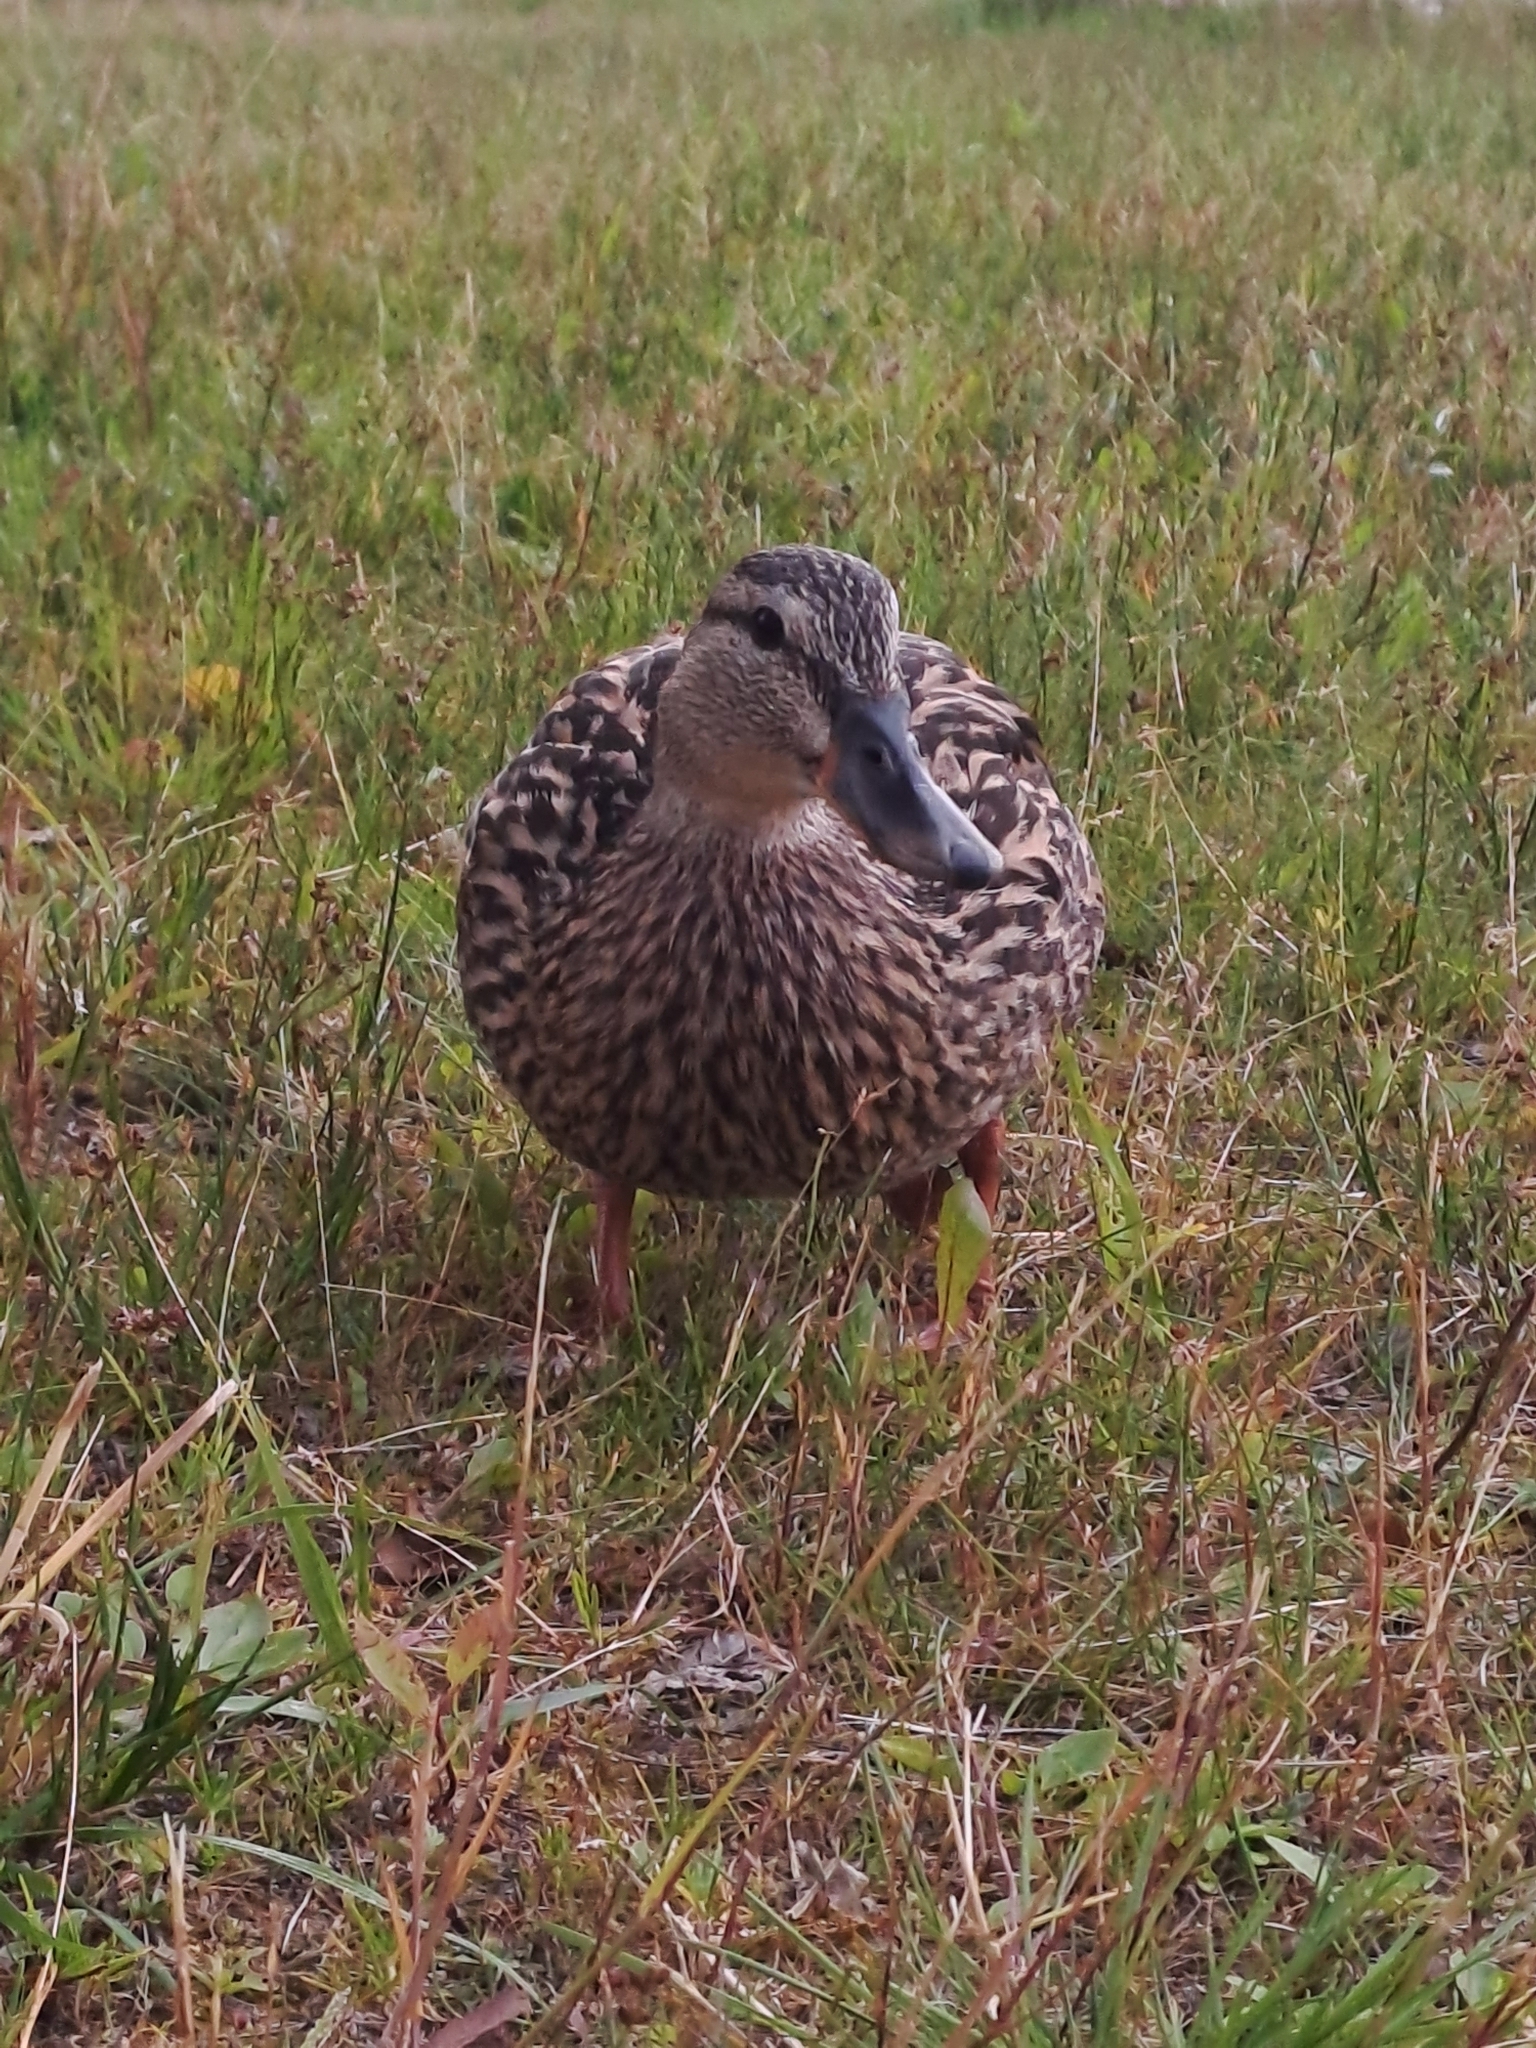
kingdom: Animalia
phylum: Chordata
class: Aves
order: Anseriformes
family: Anatidae
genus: Anas
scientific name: Anas platyrhynchos
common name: Mallard
